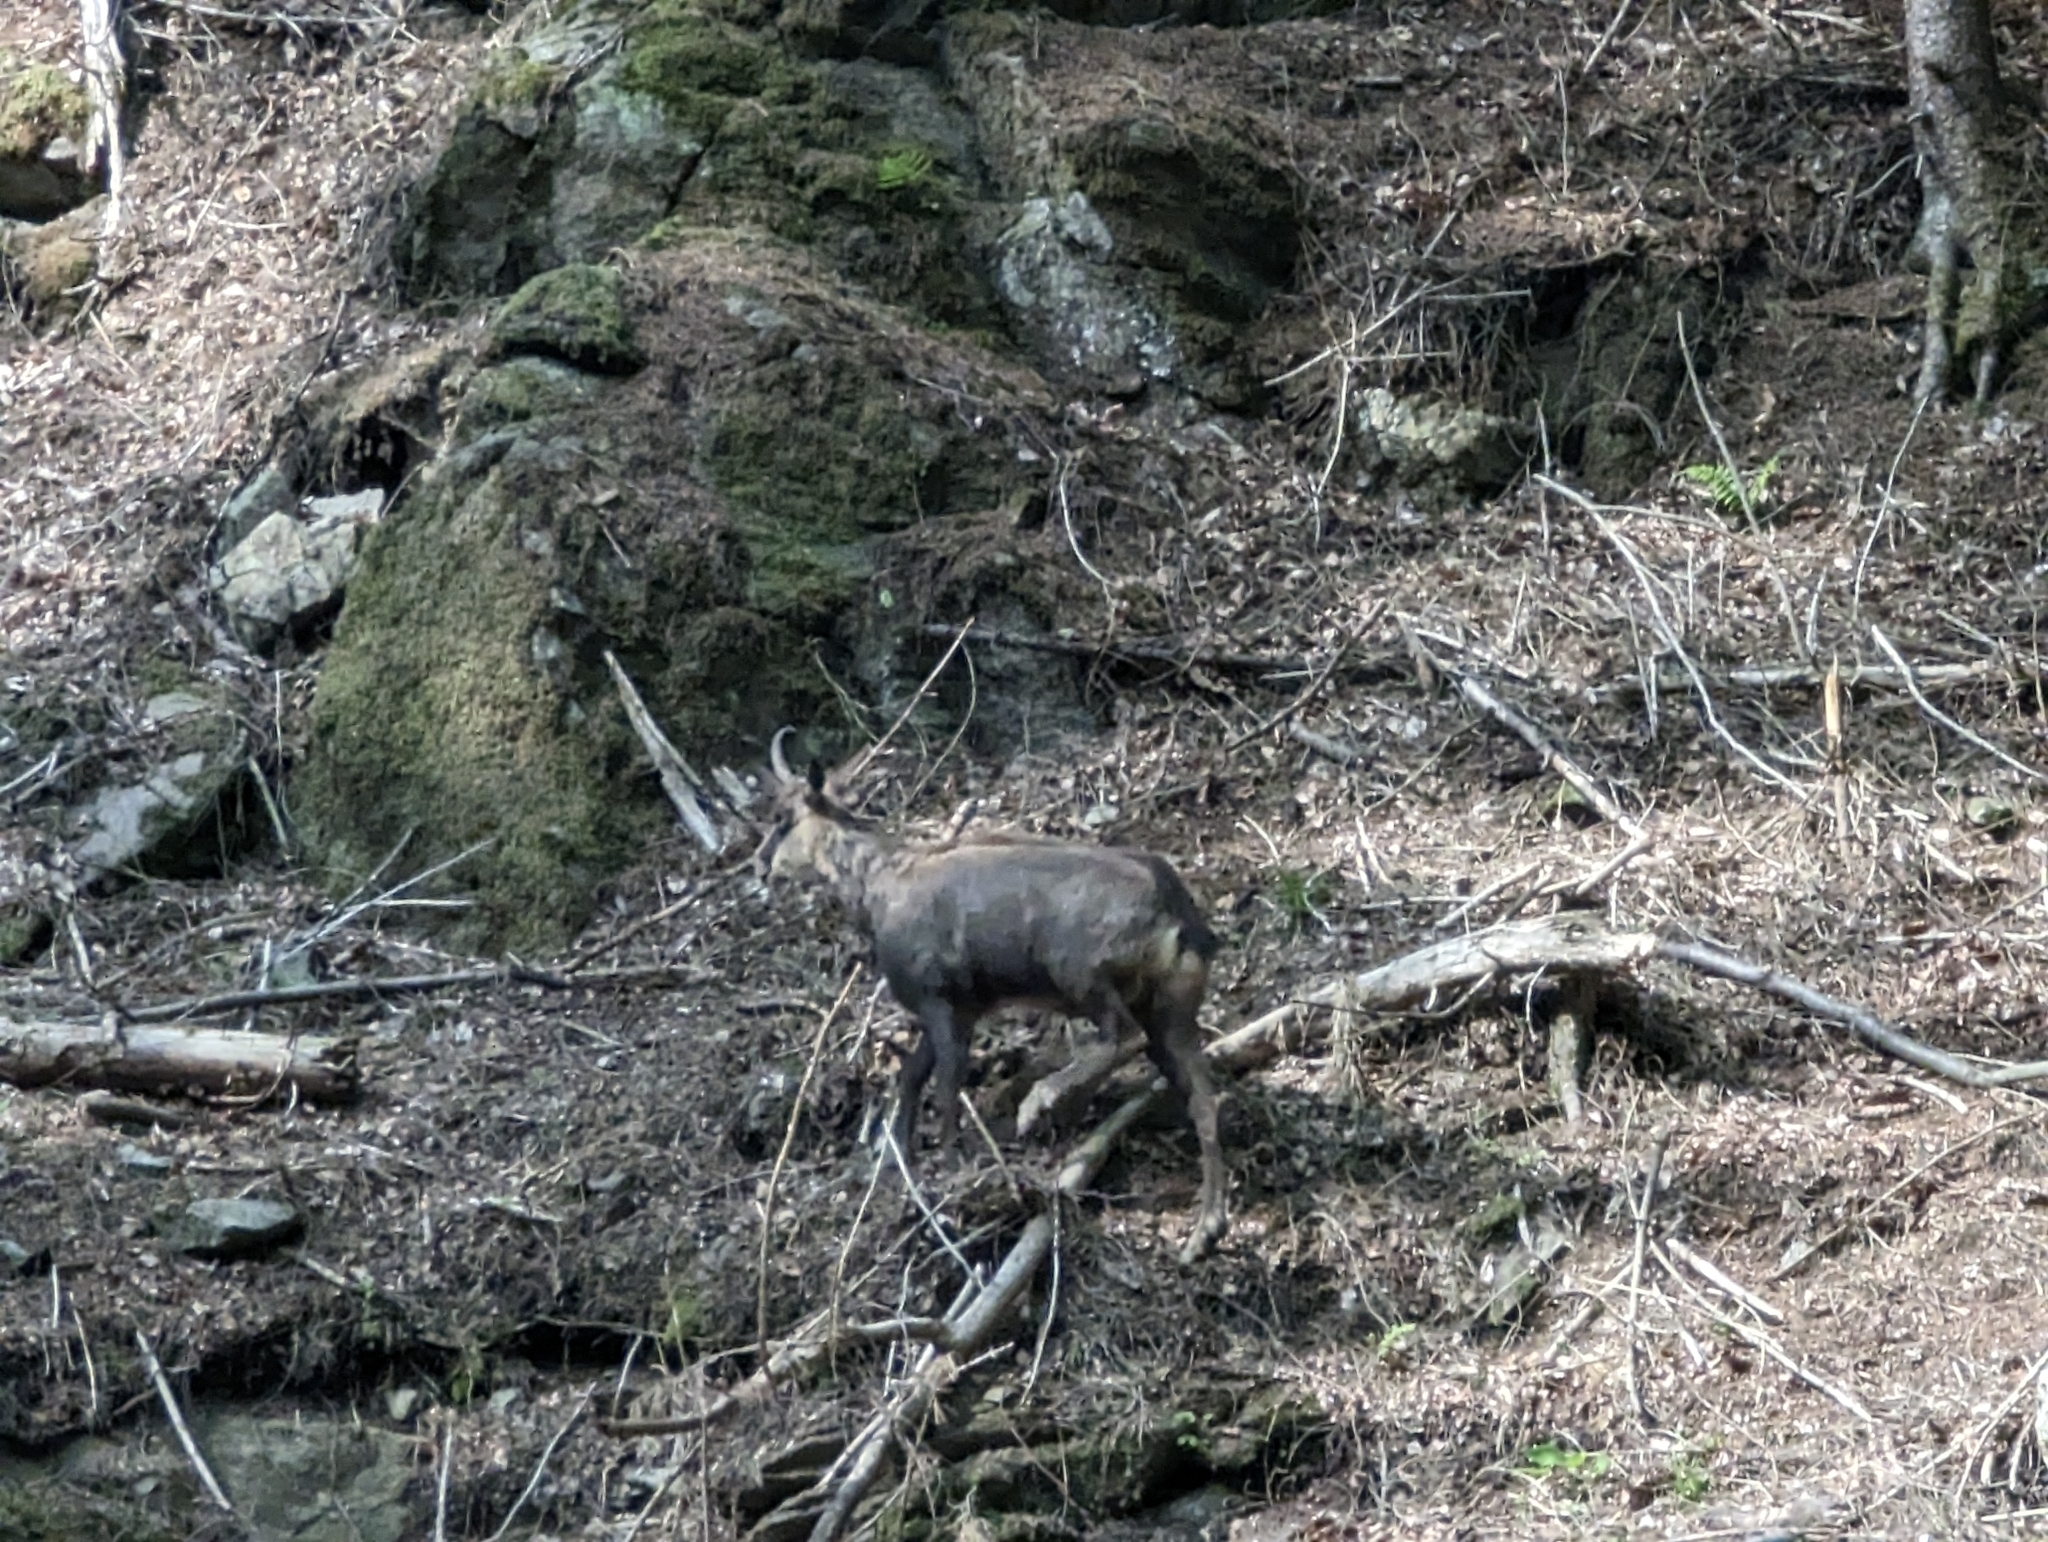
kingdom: Animalia
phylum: Chordata
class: Mammalia
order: Artiodactyla
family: Bovidae
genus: Rupicapra
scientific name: Rupicapra rupicapra
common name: Chamois
